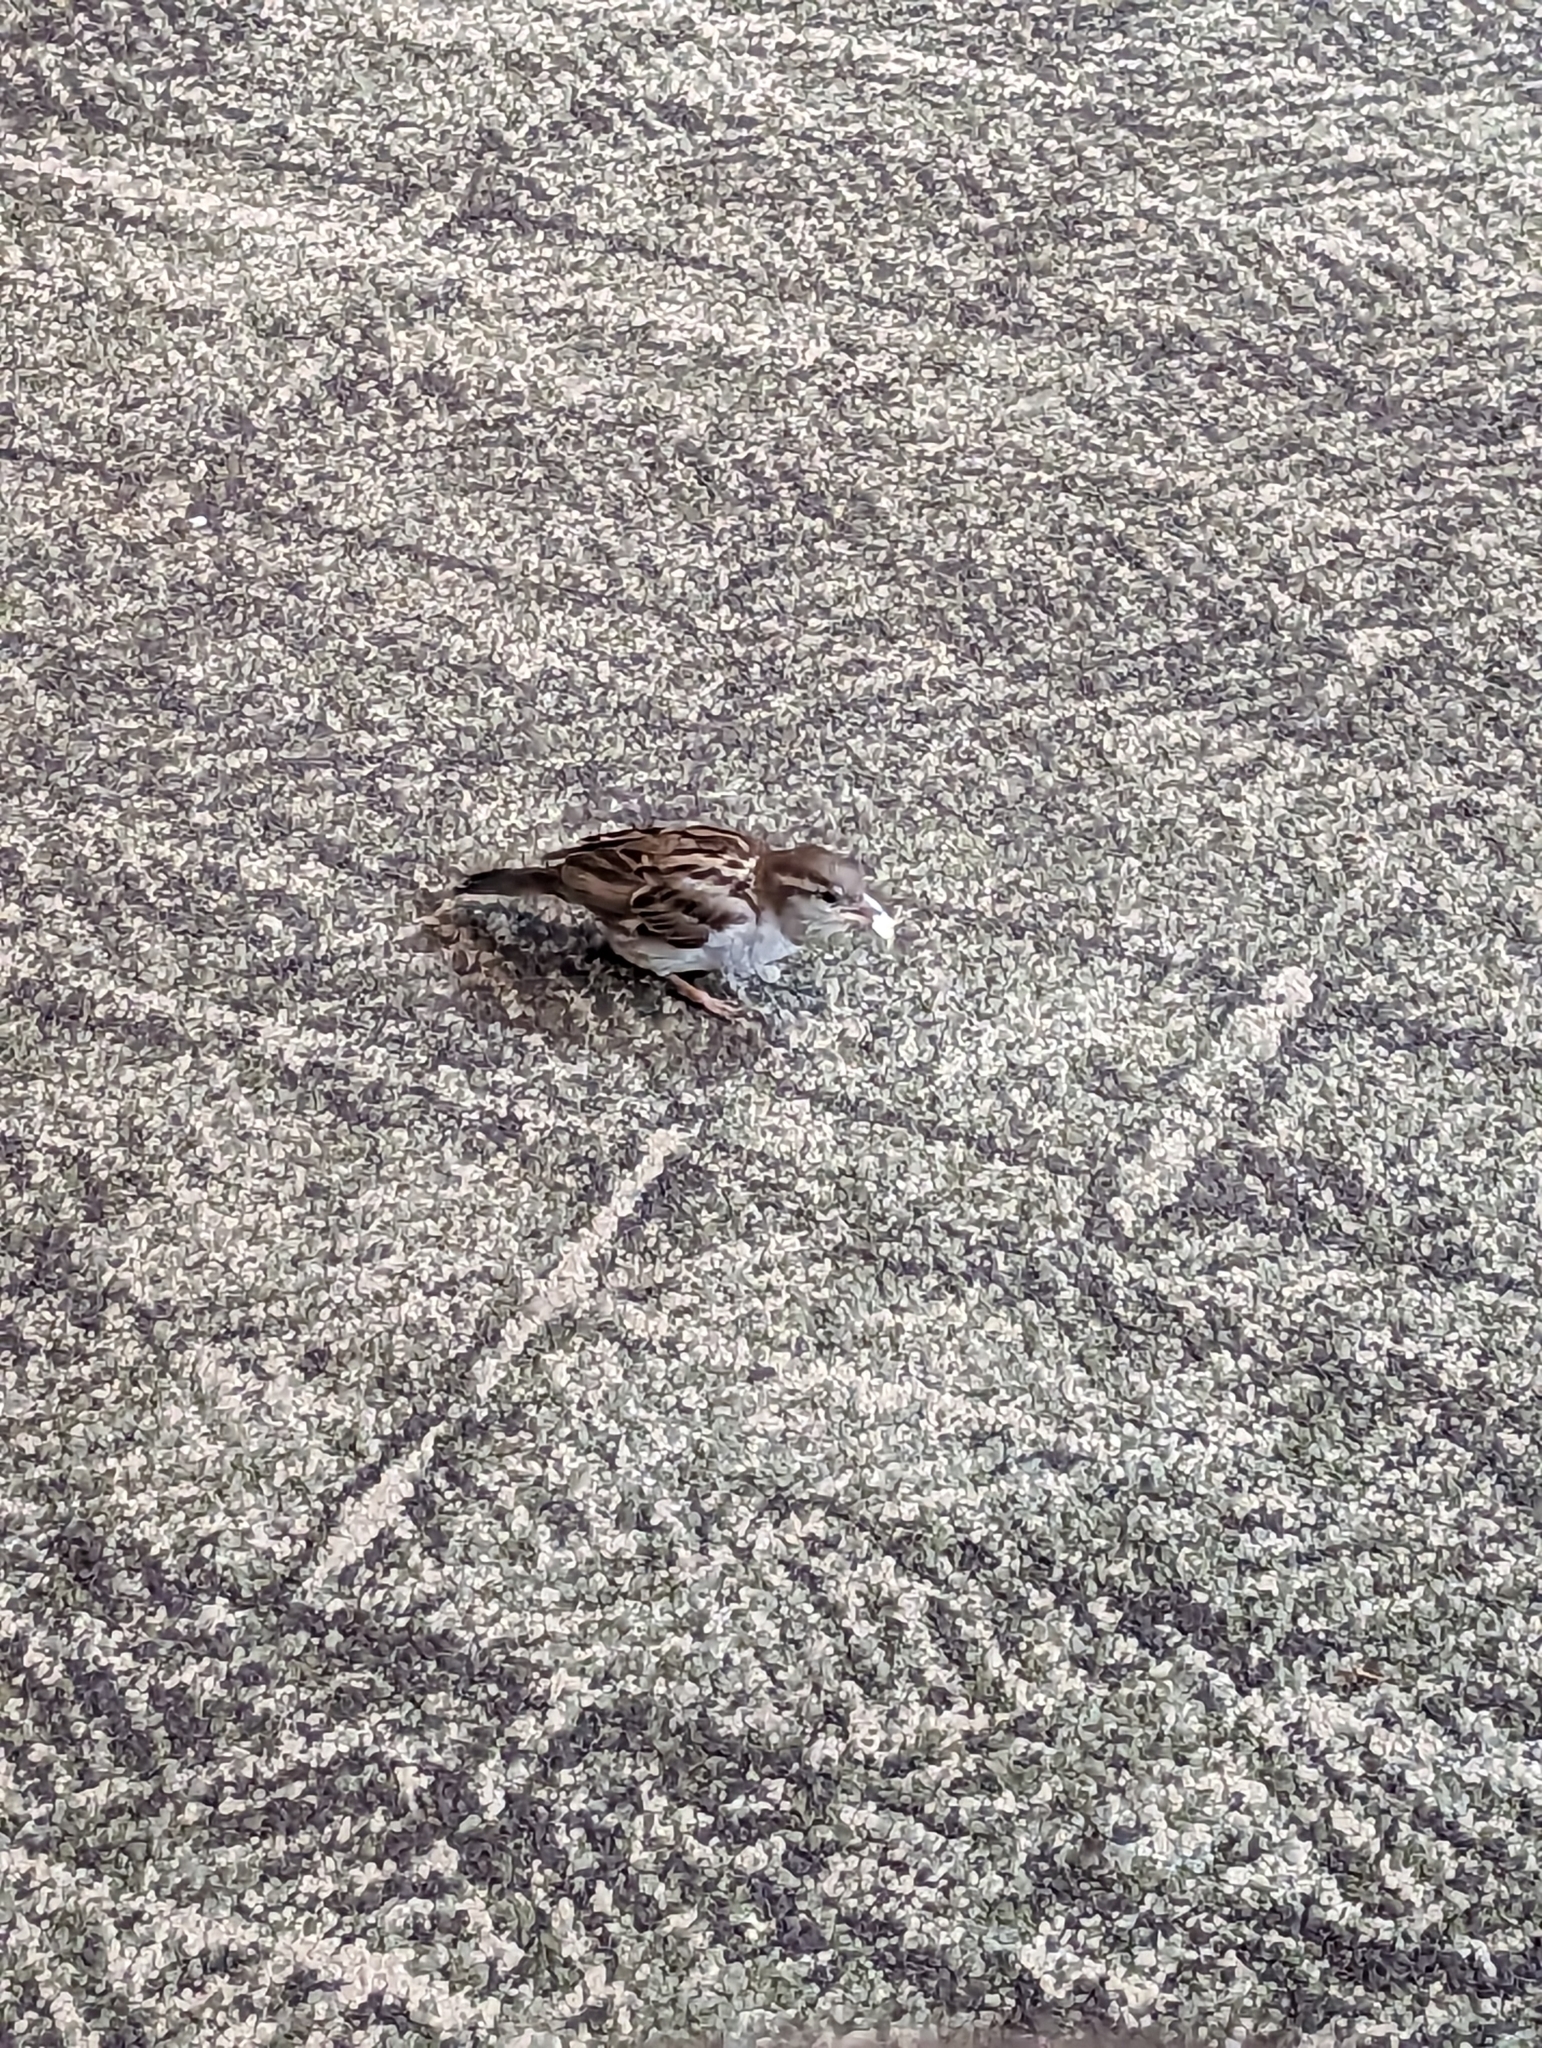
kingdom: Animalia
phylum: Chordata
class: Aves
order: Passeriformes
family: Passeridae
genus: Passer
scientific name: Passer domesticus
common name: House sparrow
